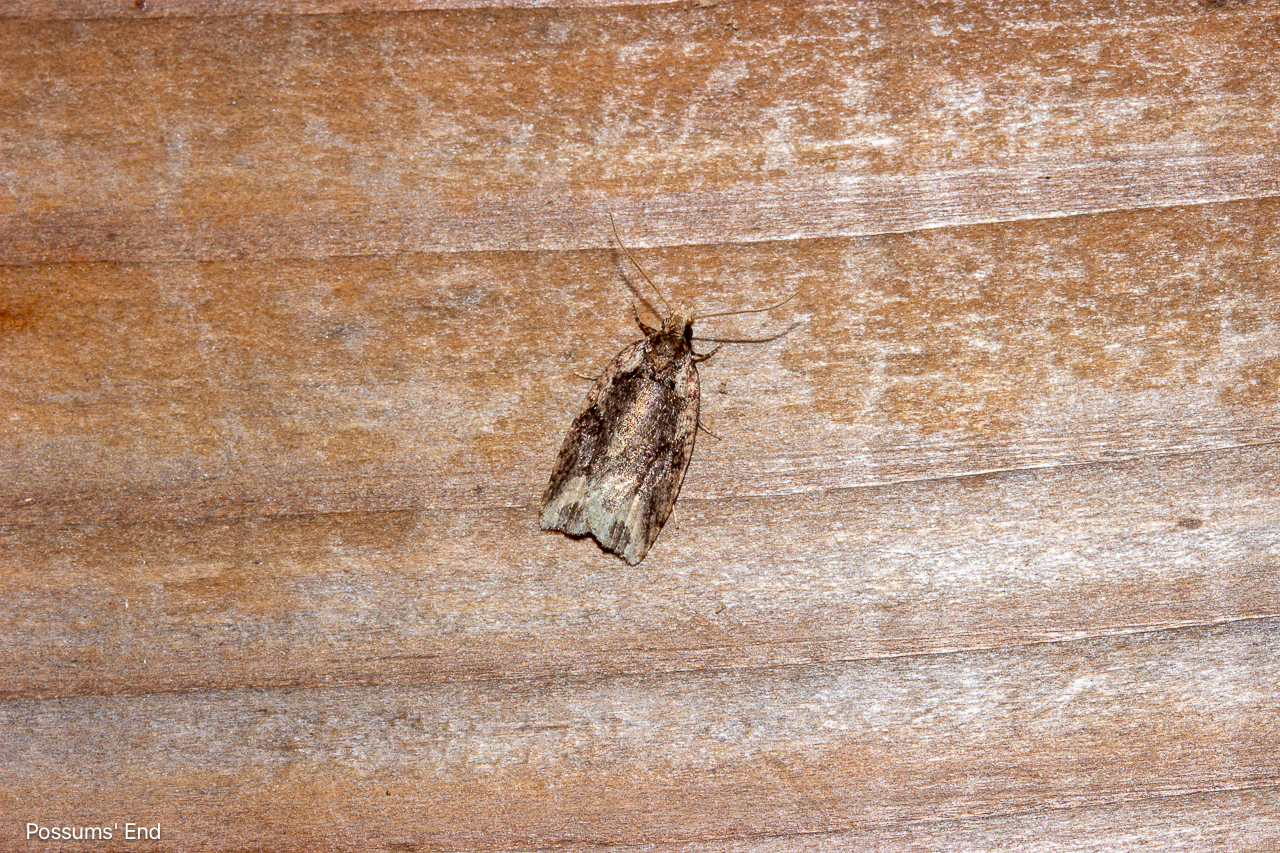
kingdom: Animalia
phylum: Arthropoda
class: Insecta
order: Lepidoptera
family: Tortricidae
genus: Ctenopseustis
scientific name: Ctenopseustis obliquana
